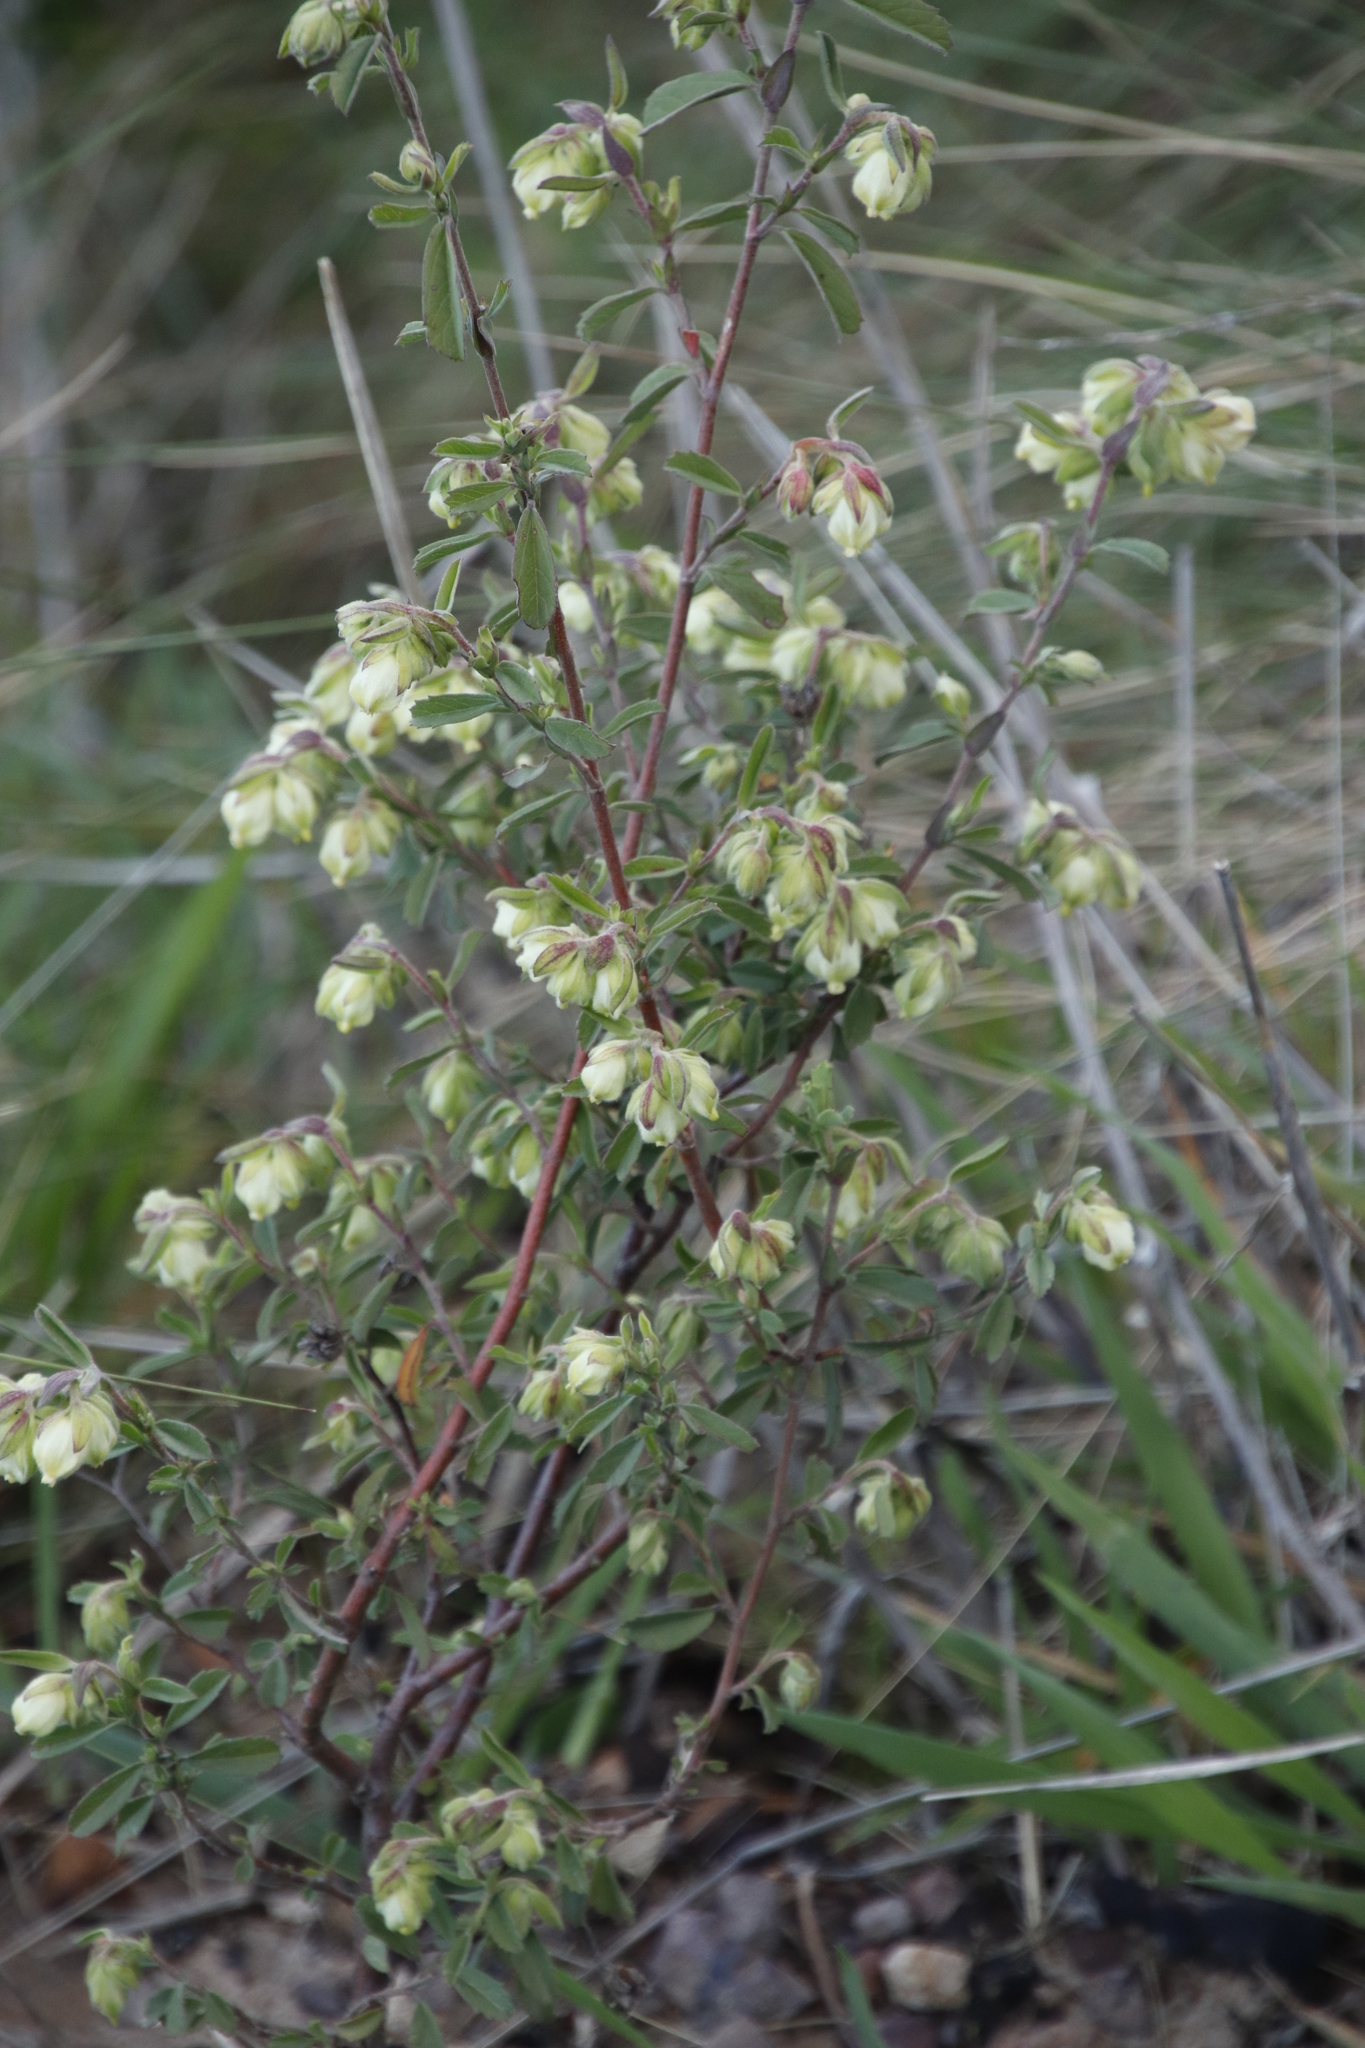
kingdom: Plantae
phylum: Tracheophyta
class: Magnoliopsida
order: Malvales
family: Malvaceae
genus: Hermannia
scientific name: Hermannia hyssopifolia
